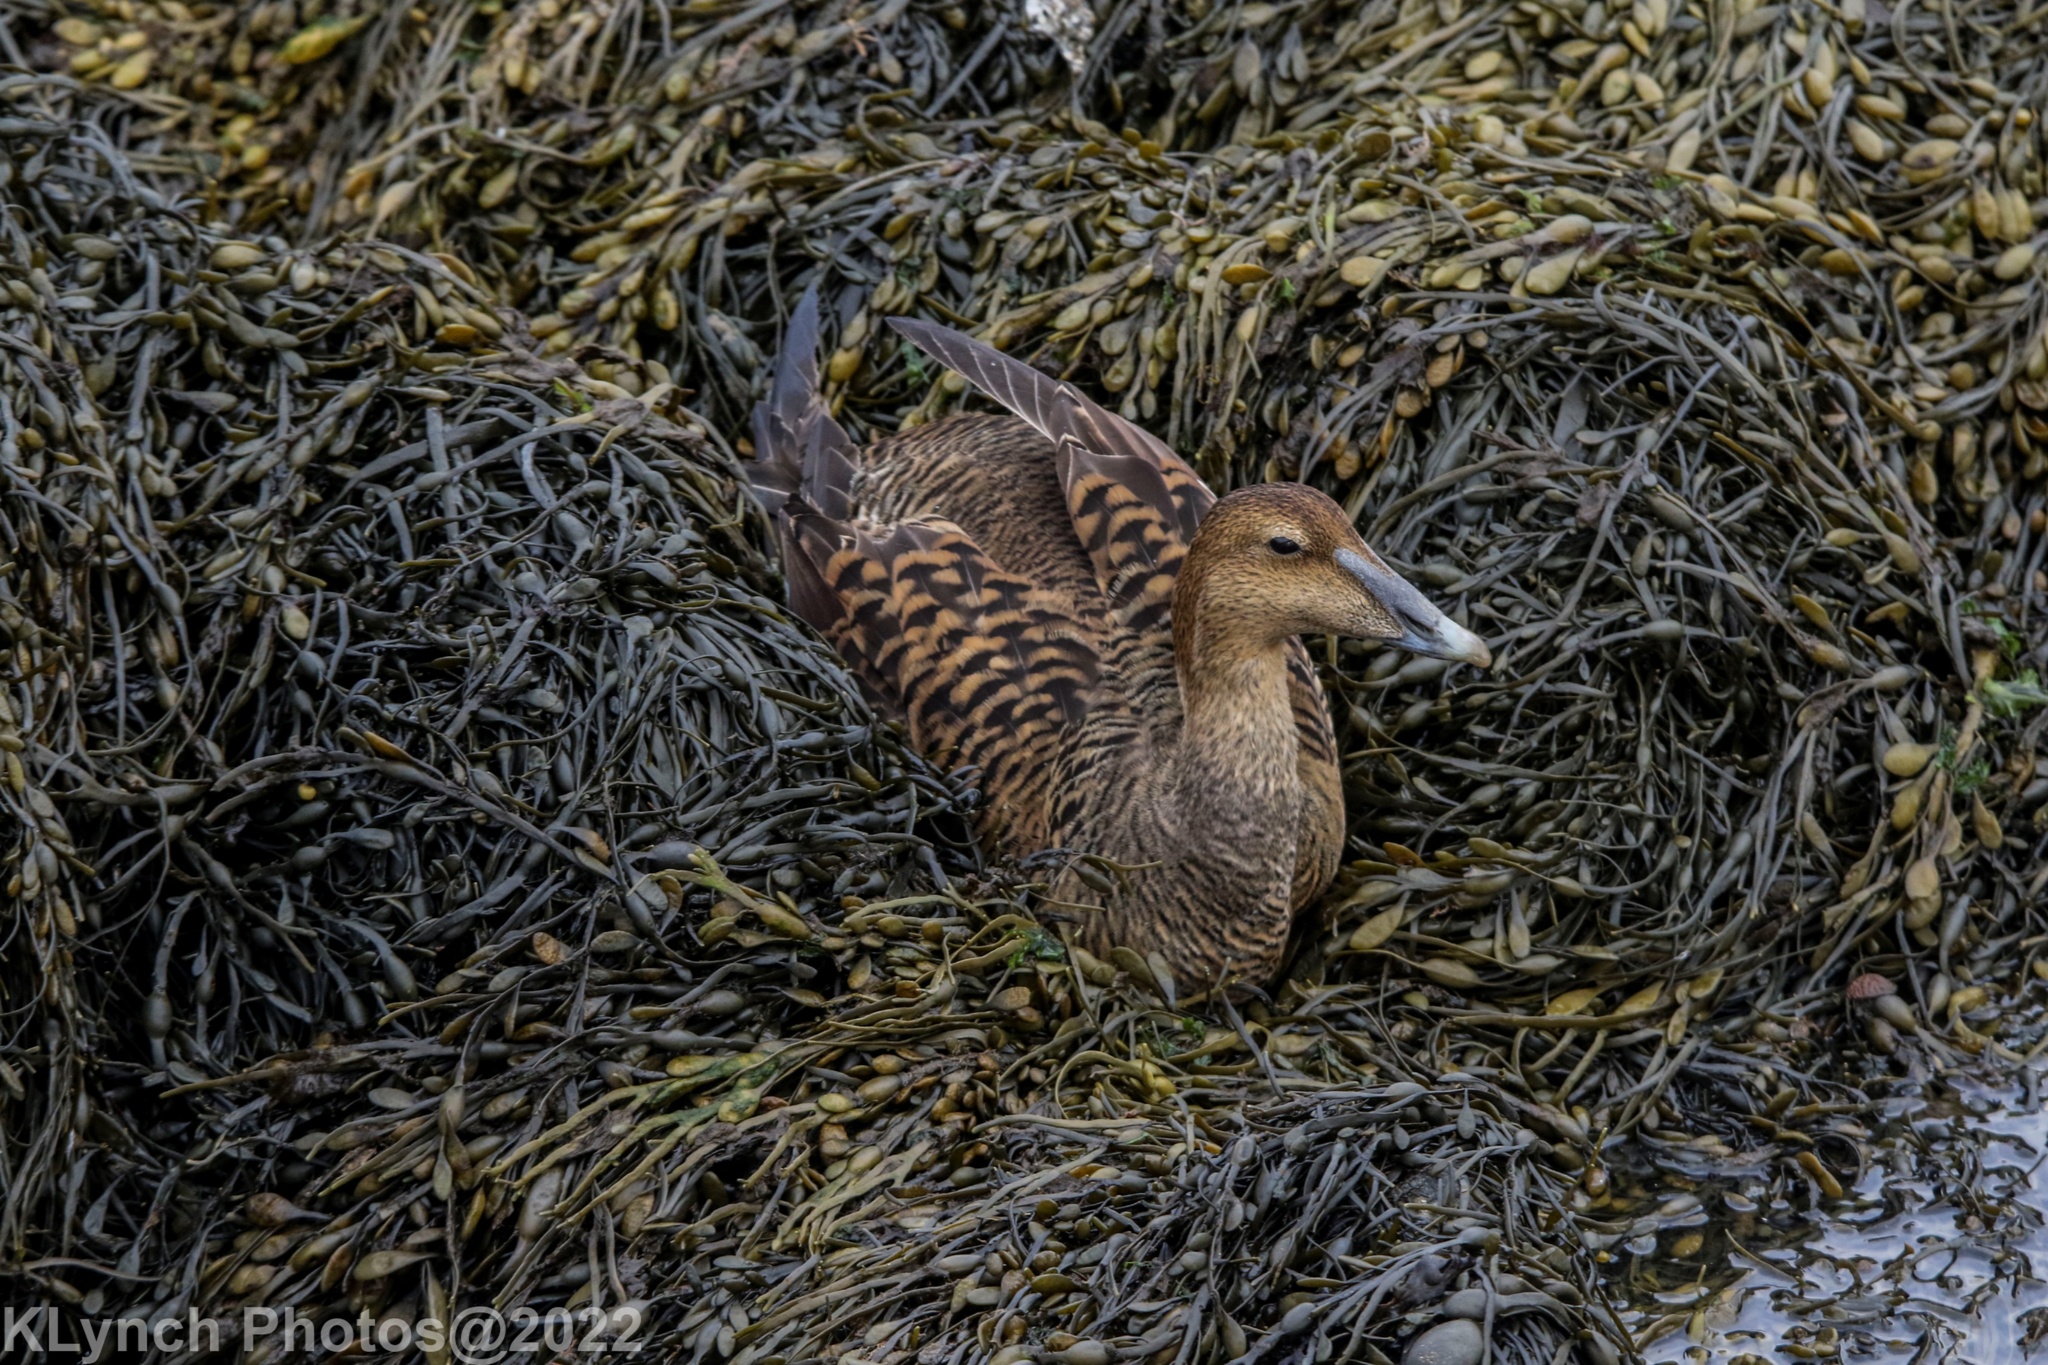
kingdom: Animalia
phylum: Chordata
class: Aves
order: Anseriformes
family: Anatidae
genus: Somateria
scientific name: Somateria mollissima
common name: Common eider
